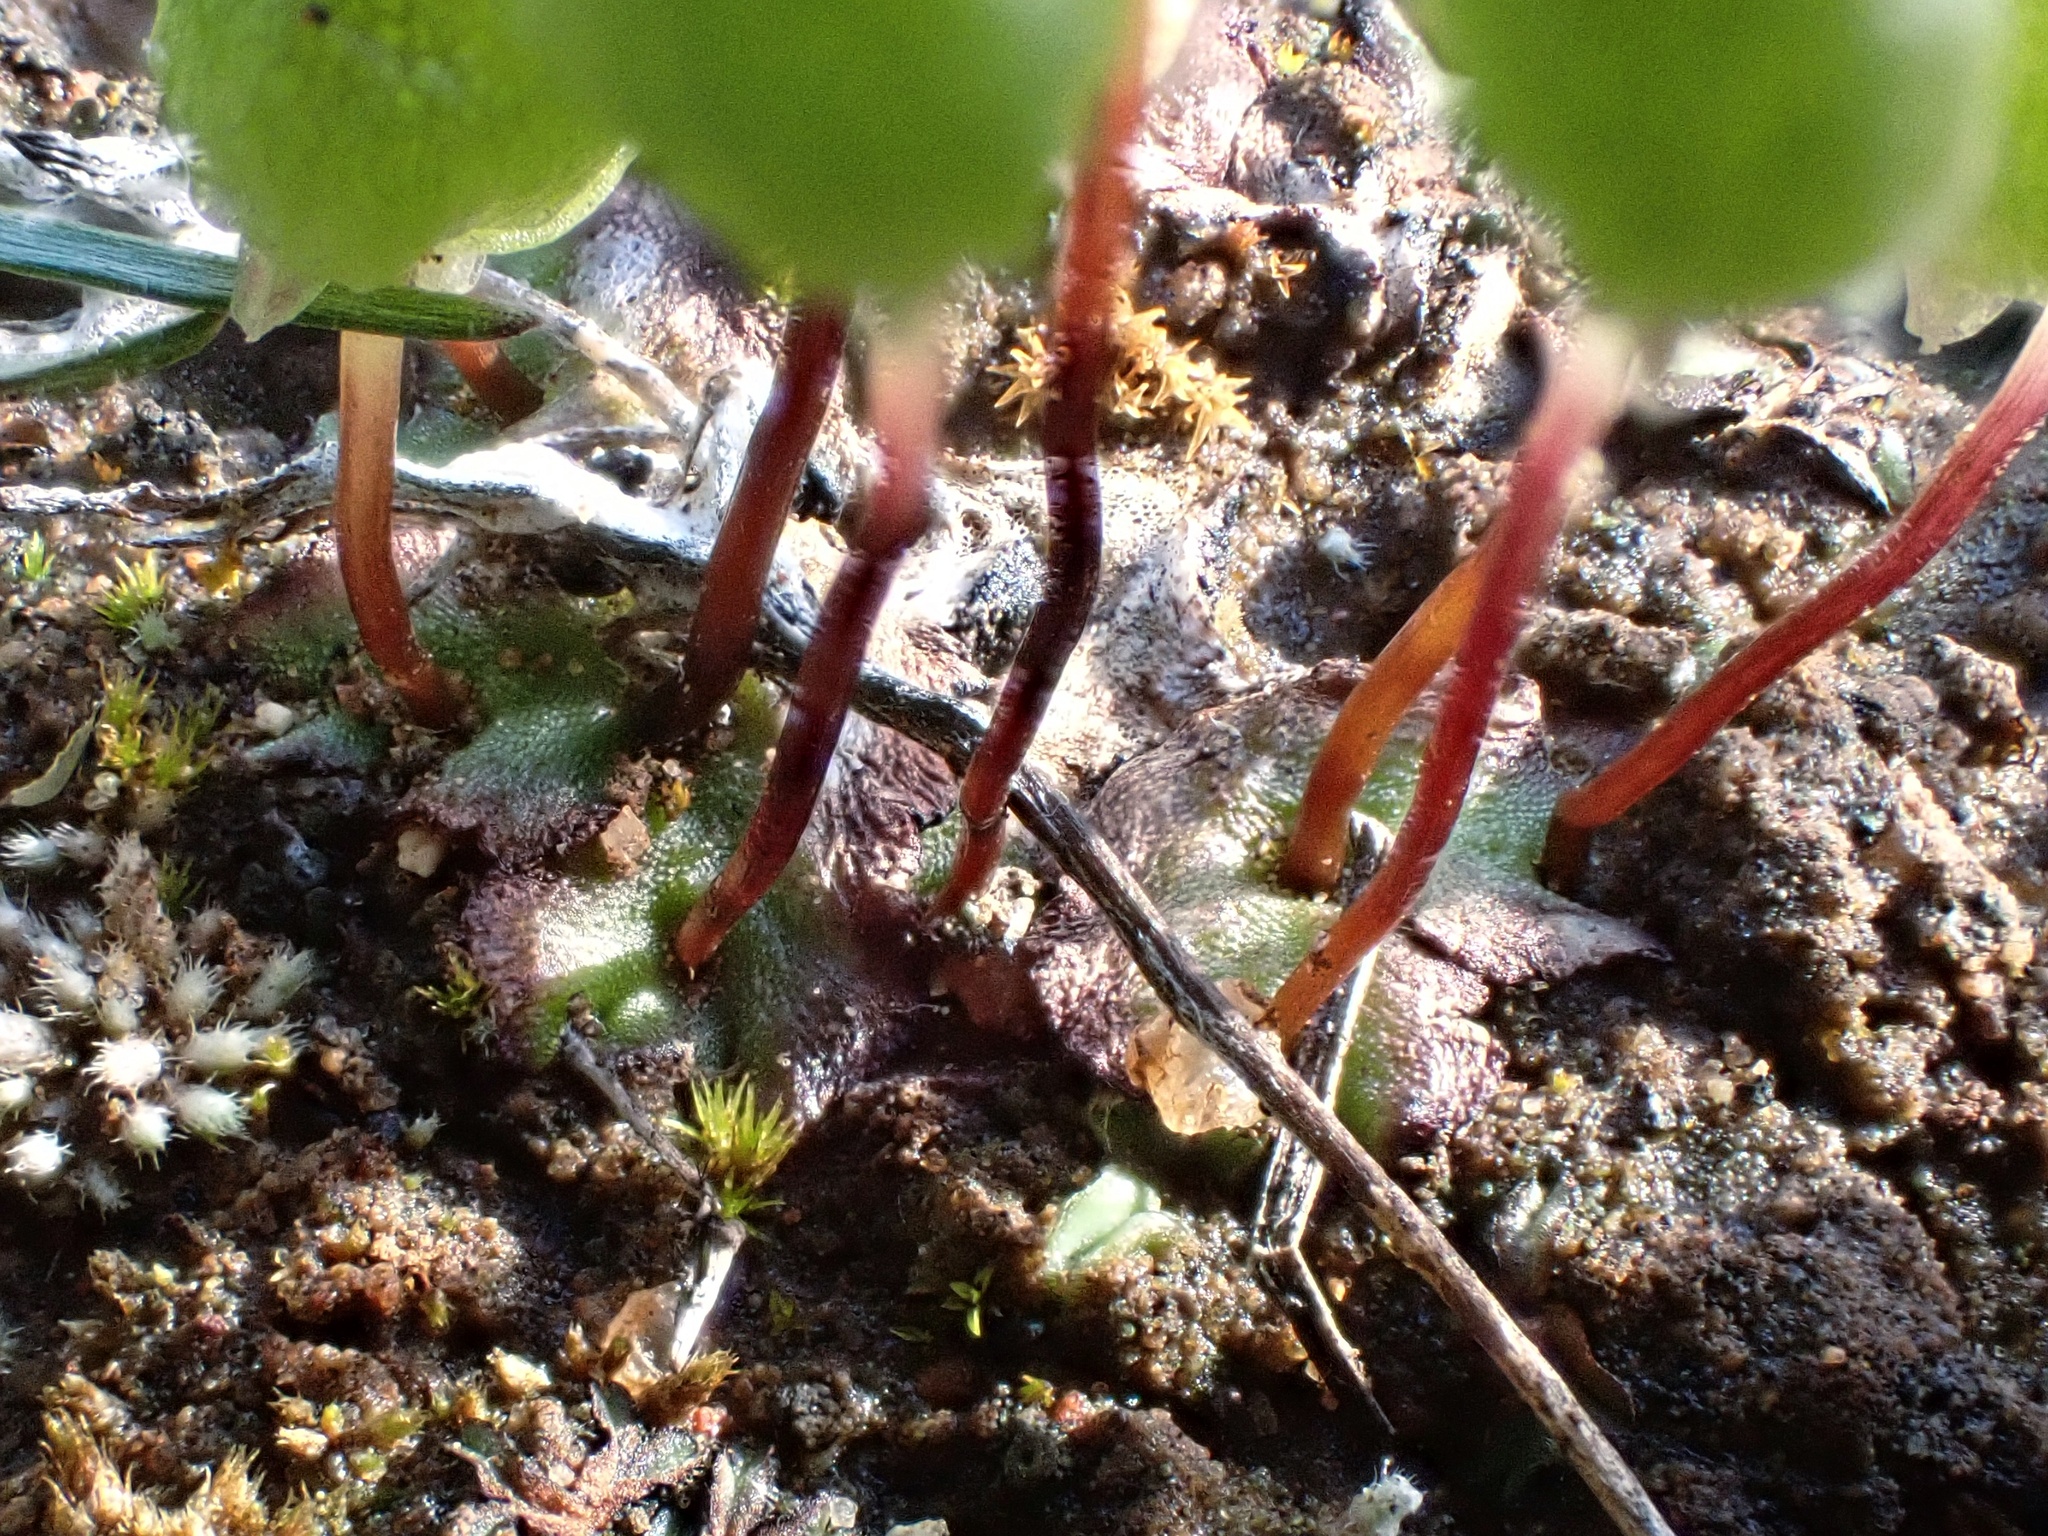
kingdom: Plantae
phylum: Marchantiophyta
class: Marchantiopsida
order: Marchantiales
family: Aytoniaceae
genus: Asterella
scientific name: Asterella palmeri
